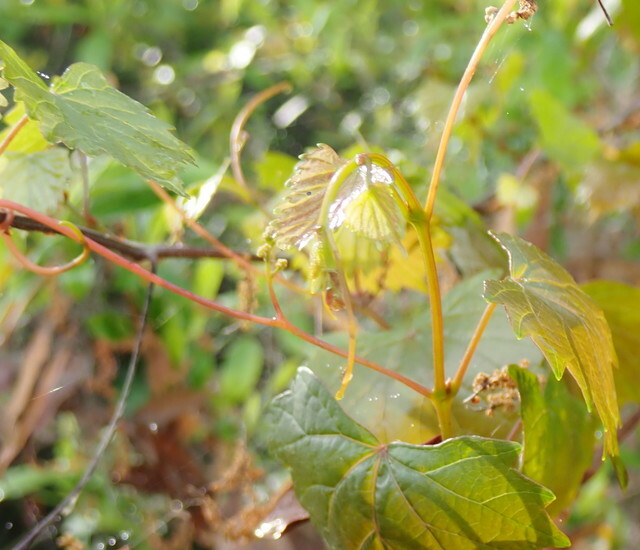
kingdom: Plantae
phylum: Tracheophyta
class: Magnoliopsida
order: Vitales
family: Vitaceae
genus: Vitis
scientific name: Vitis rotundifolia
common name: Muscadine grape
